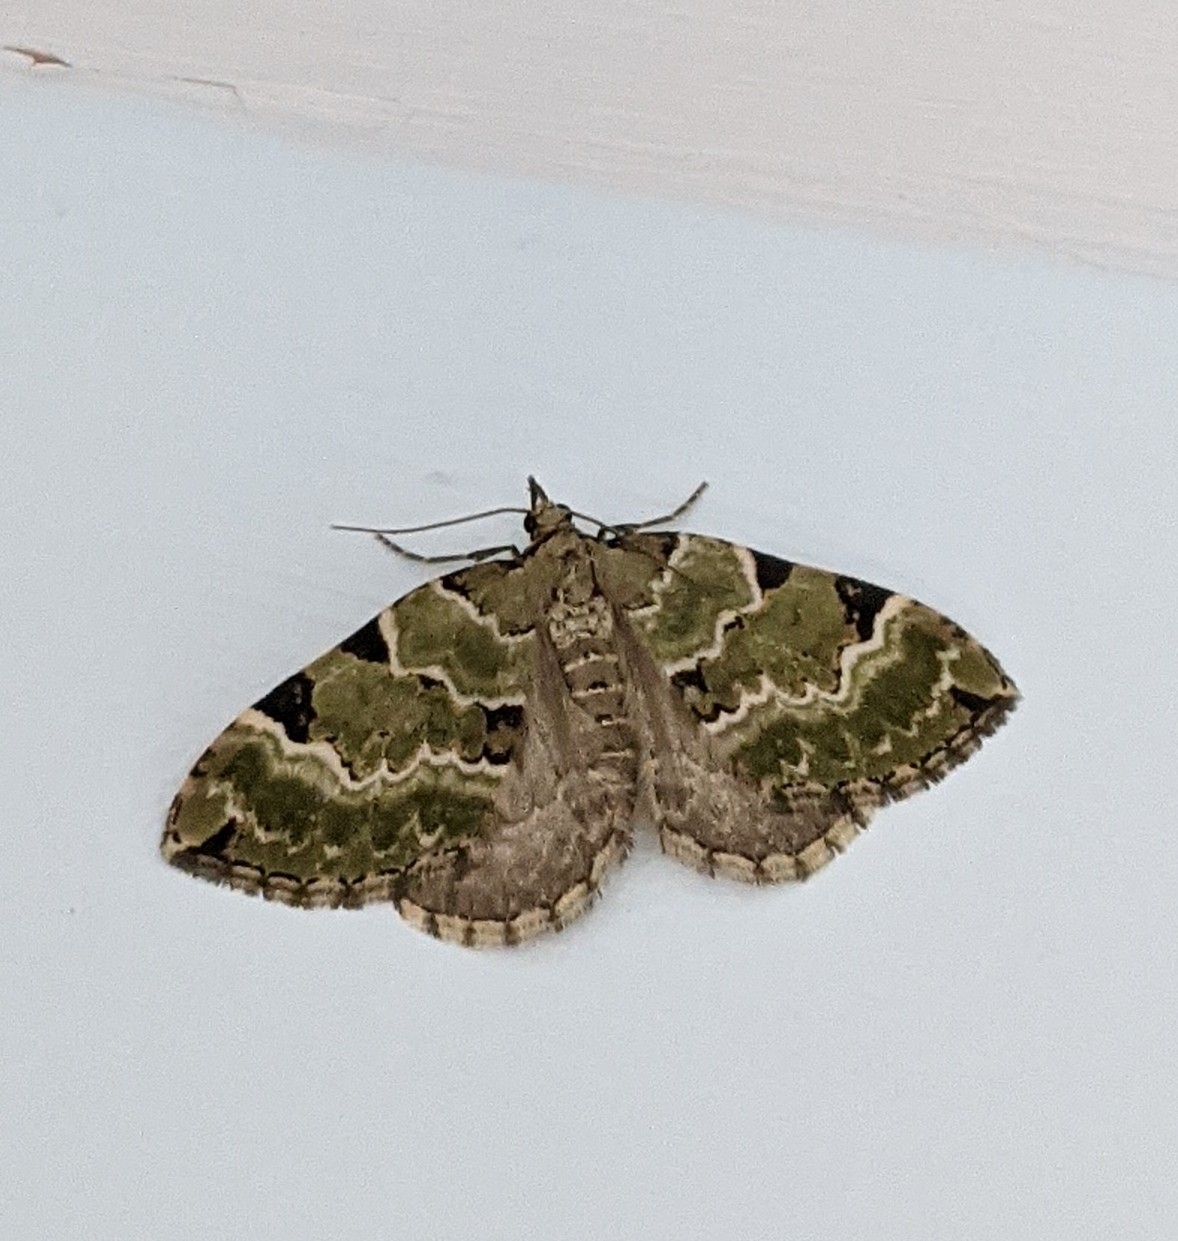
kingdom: Animalia
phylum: Arthropoda
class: Insecta
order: Lepidoptera
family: Geometridae
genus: Colostygia
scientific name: Colostygia pectinataria
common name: Green carpet
